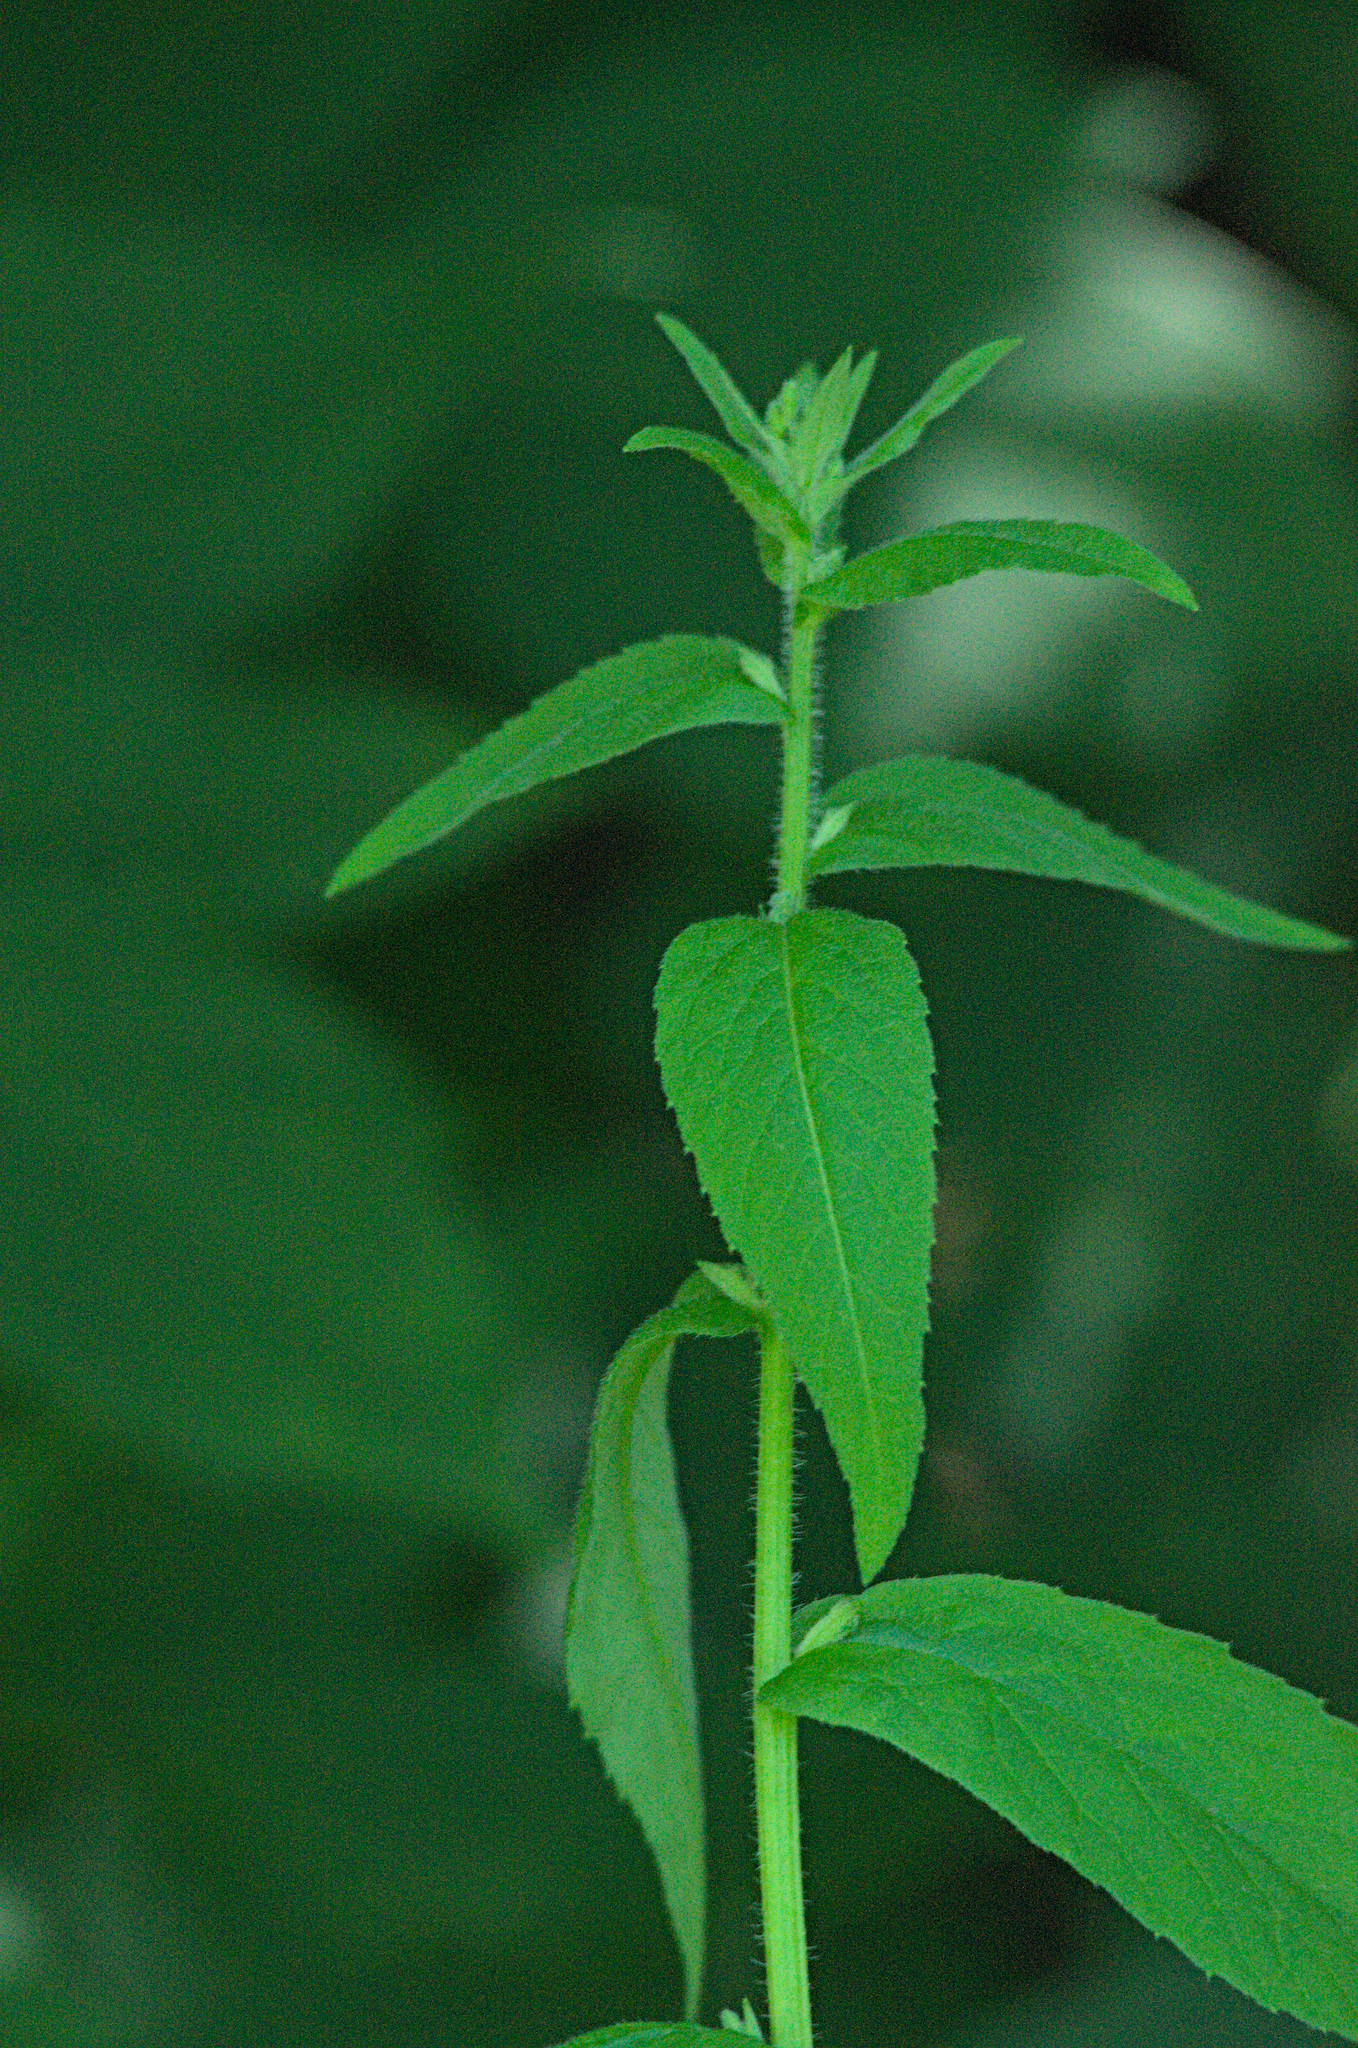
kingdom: Plantae
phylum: Tracheophyta
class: Magnoliopsida
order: Brassicales
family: Brassicaceae
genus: Catolobus
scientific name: Catolobus pendulus
